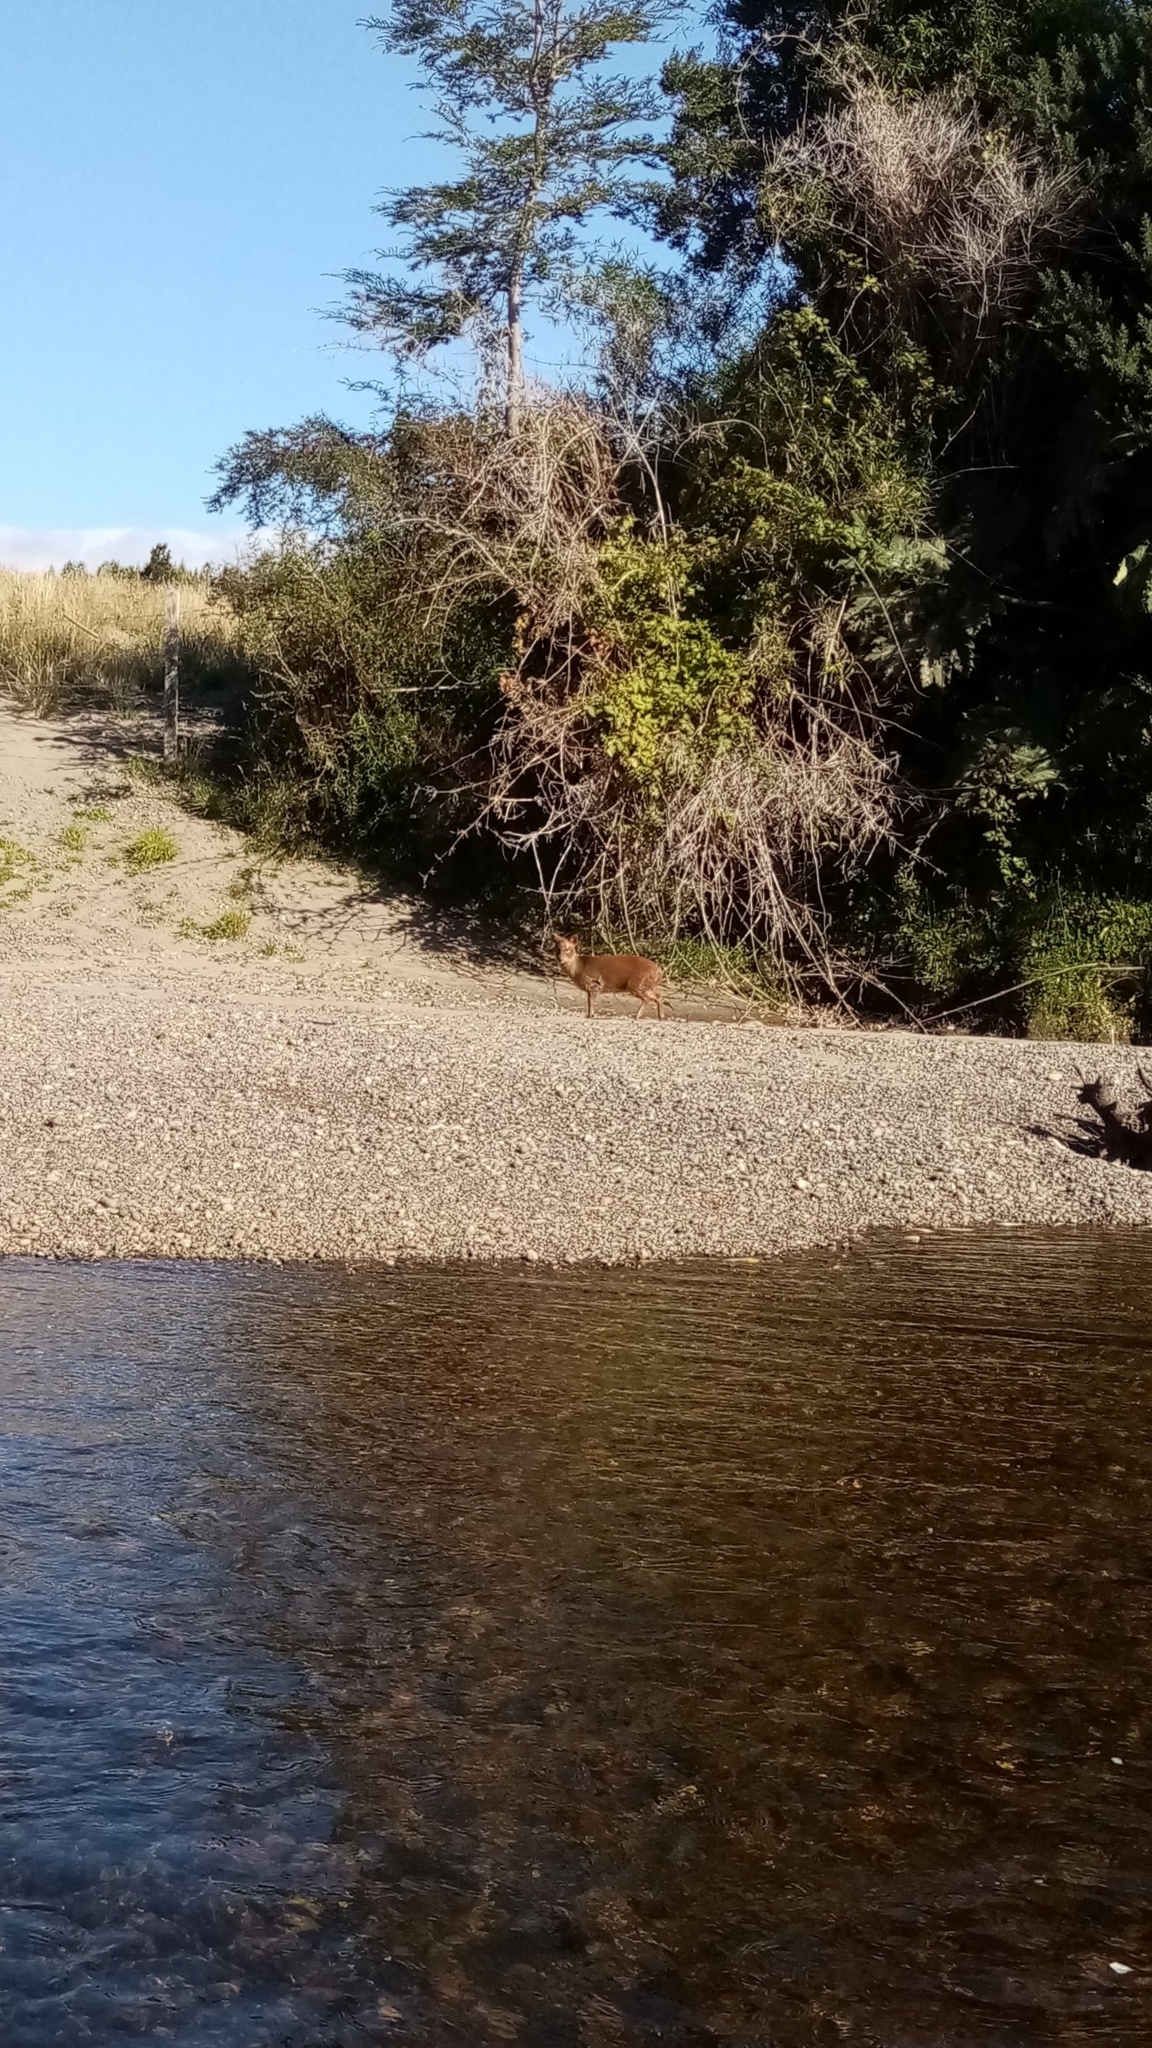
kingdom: Animalia
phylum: Chordata
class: Mammalia
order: Artiodactyla
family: Cervidae
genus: Pudu
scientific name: Pudu puda
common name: Southern pudu
